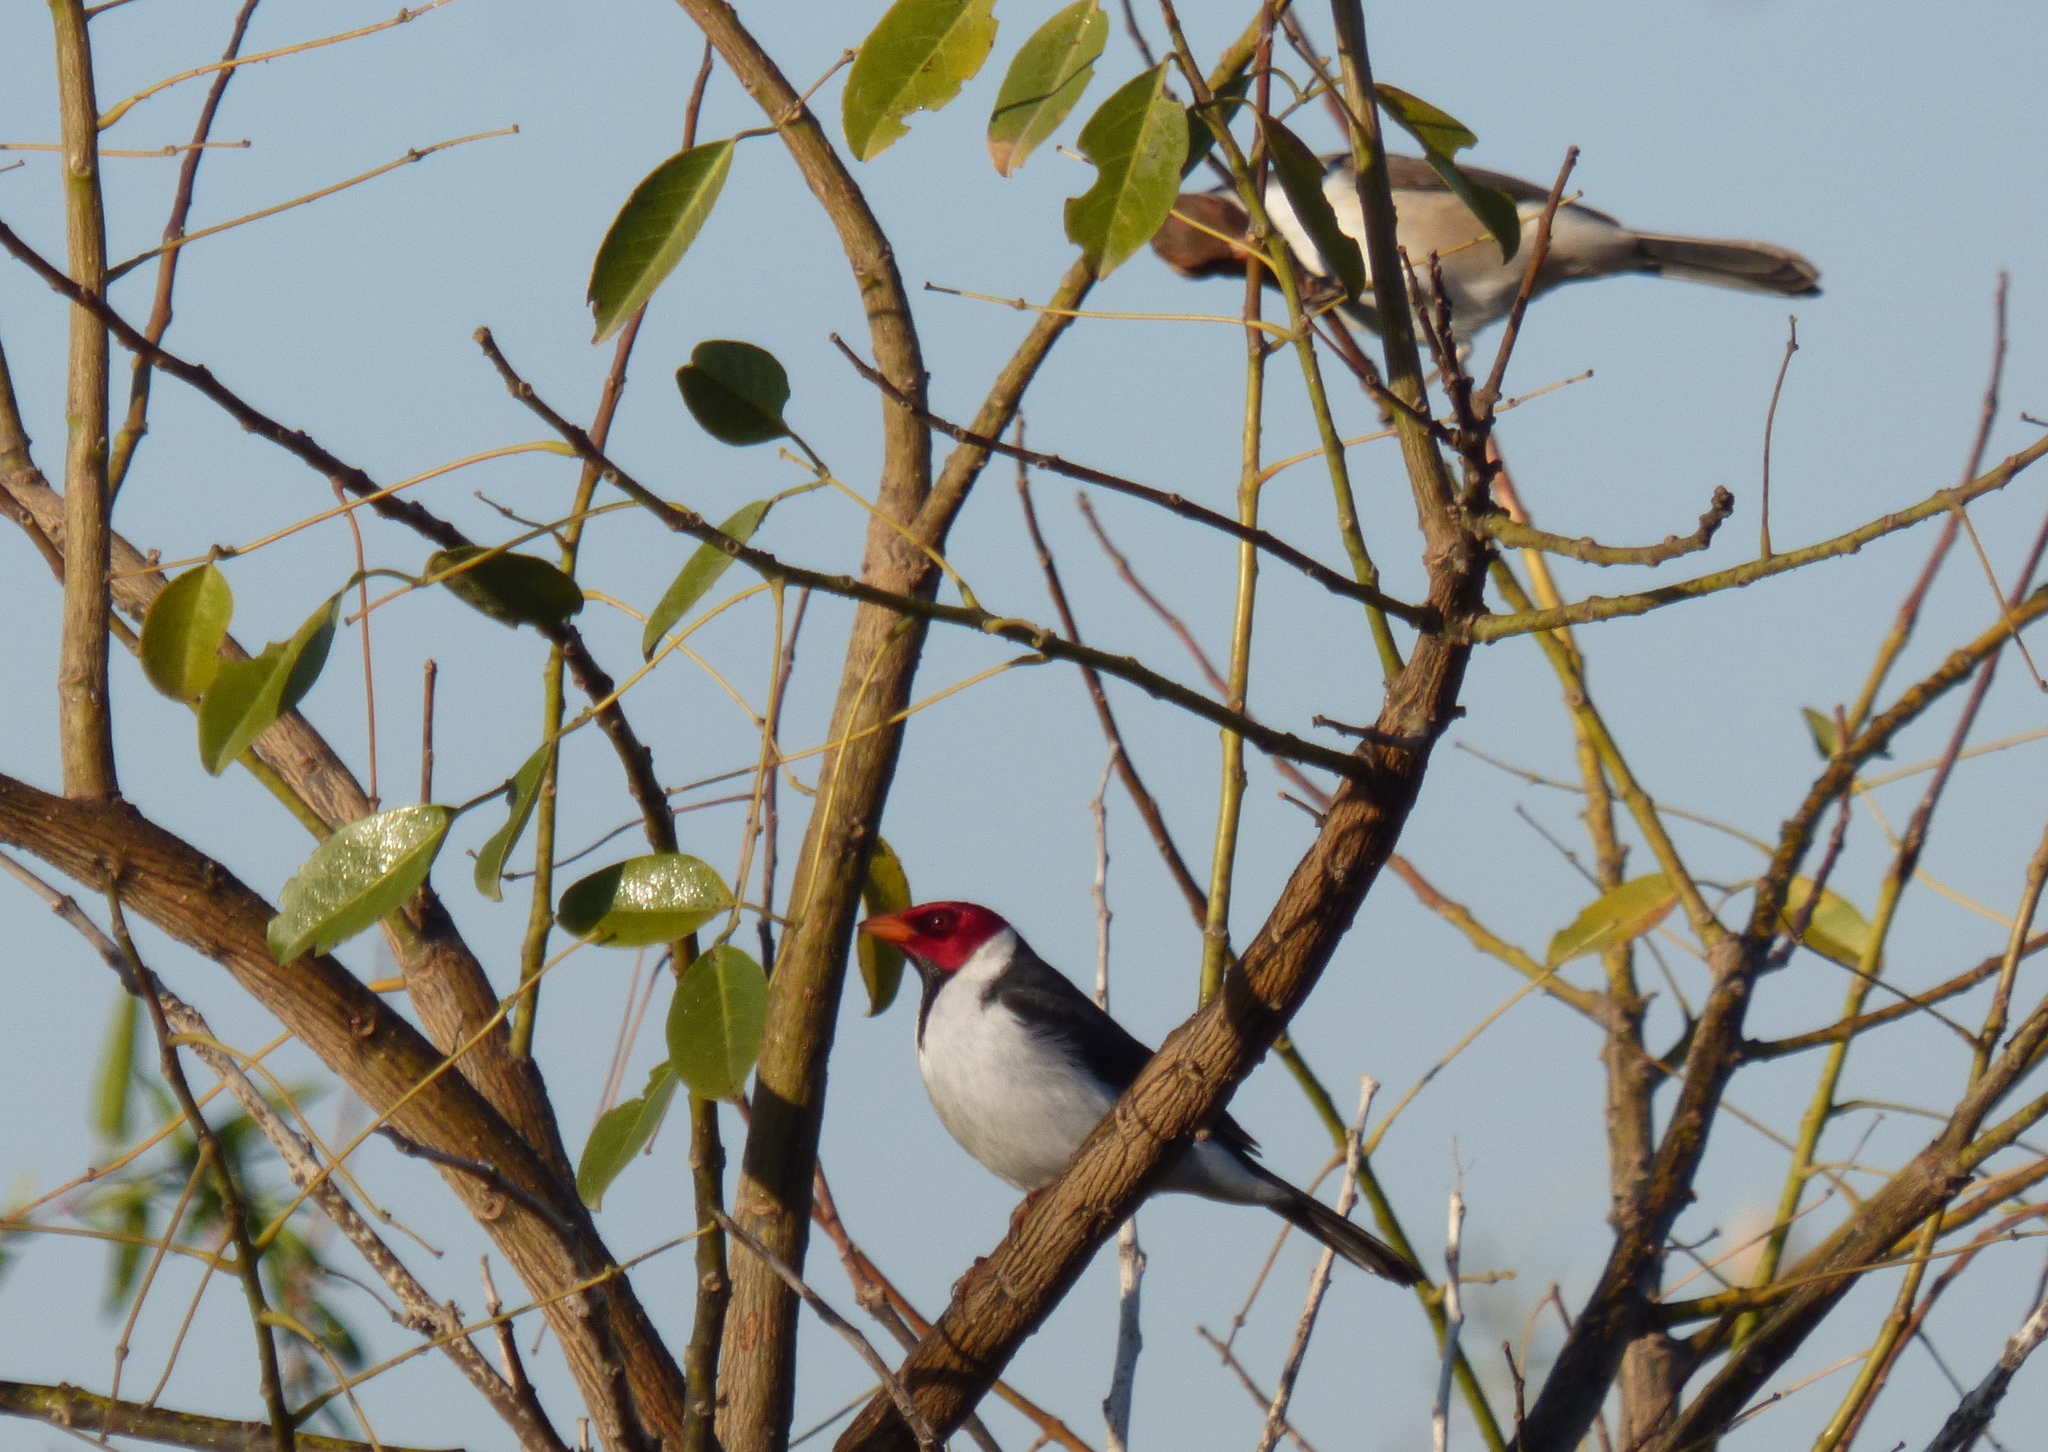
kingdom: Animalia
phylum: Chordata
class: Aves
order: Passeriformes
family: Thraupidae
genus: Paroaria
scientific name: Paroaria capitata
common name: Yellow-billed cardinal
